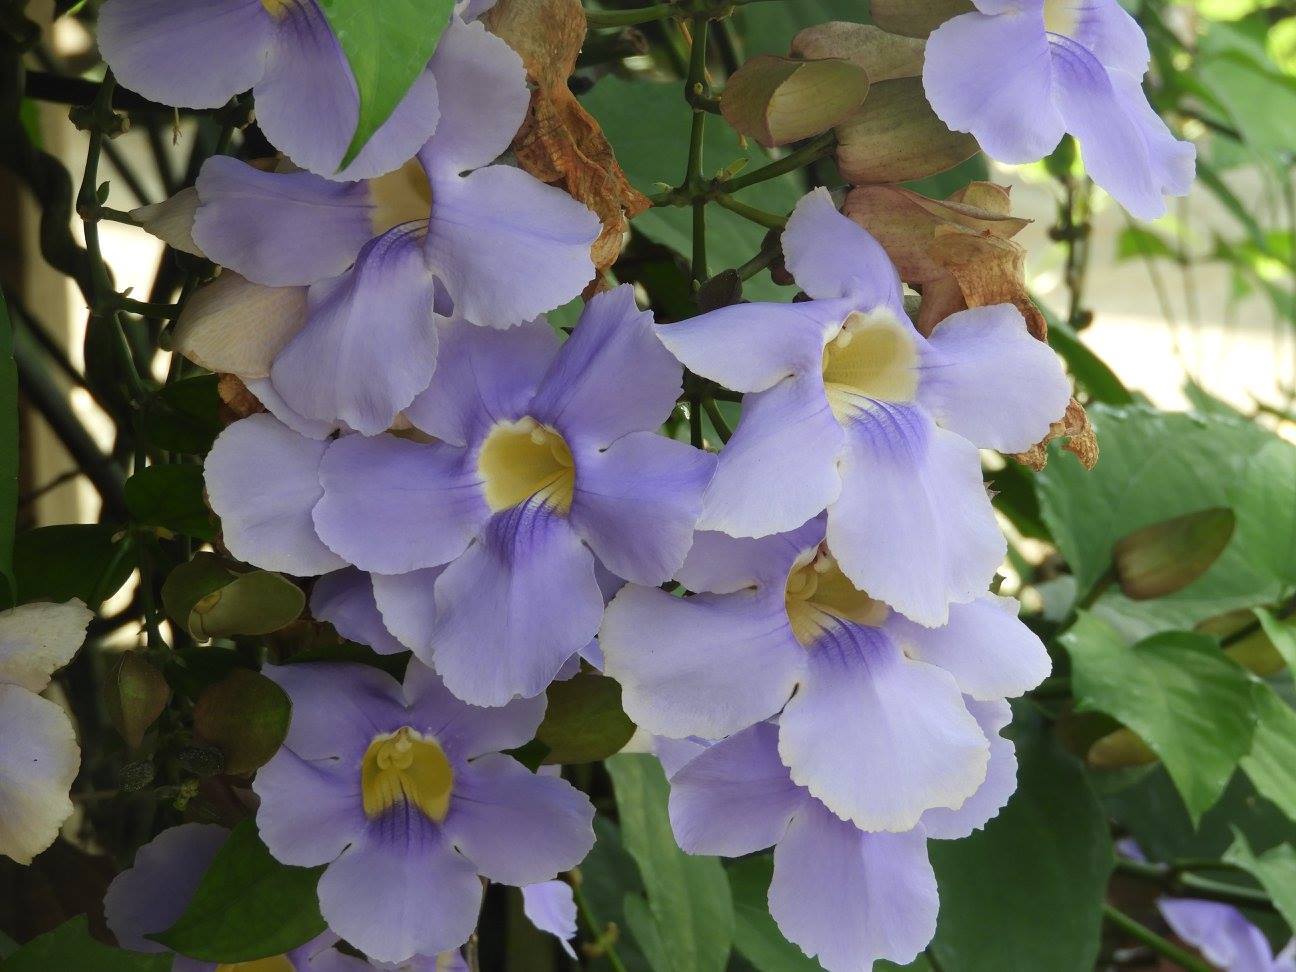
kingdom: Plantae
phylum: Tracheophyta
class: Magnoliopsida
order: Lamiales
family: Acanthaceae
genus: Thunbergia
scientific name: Thunbergia grandiflora
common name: Bengal trumpet
